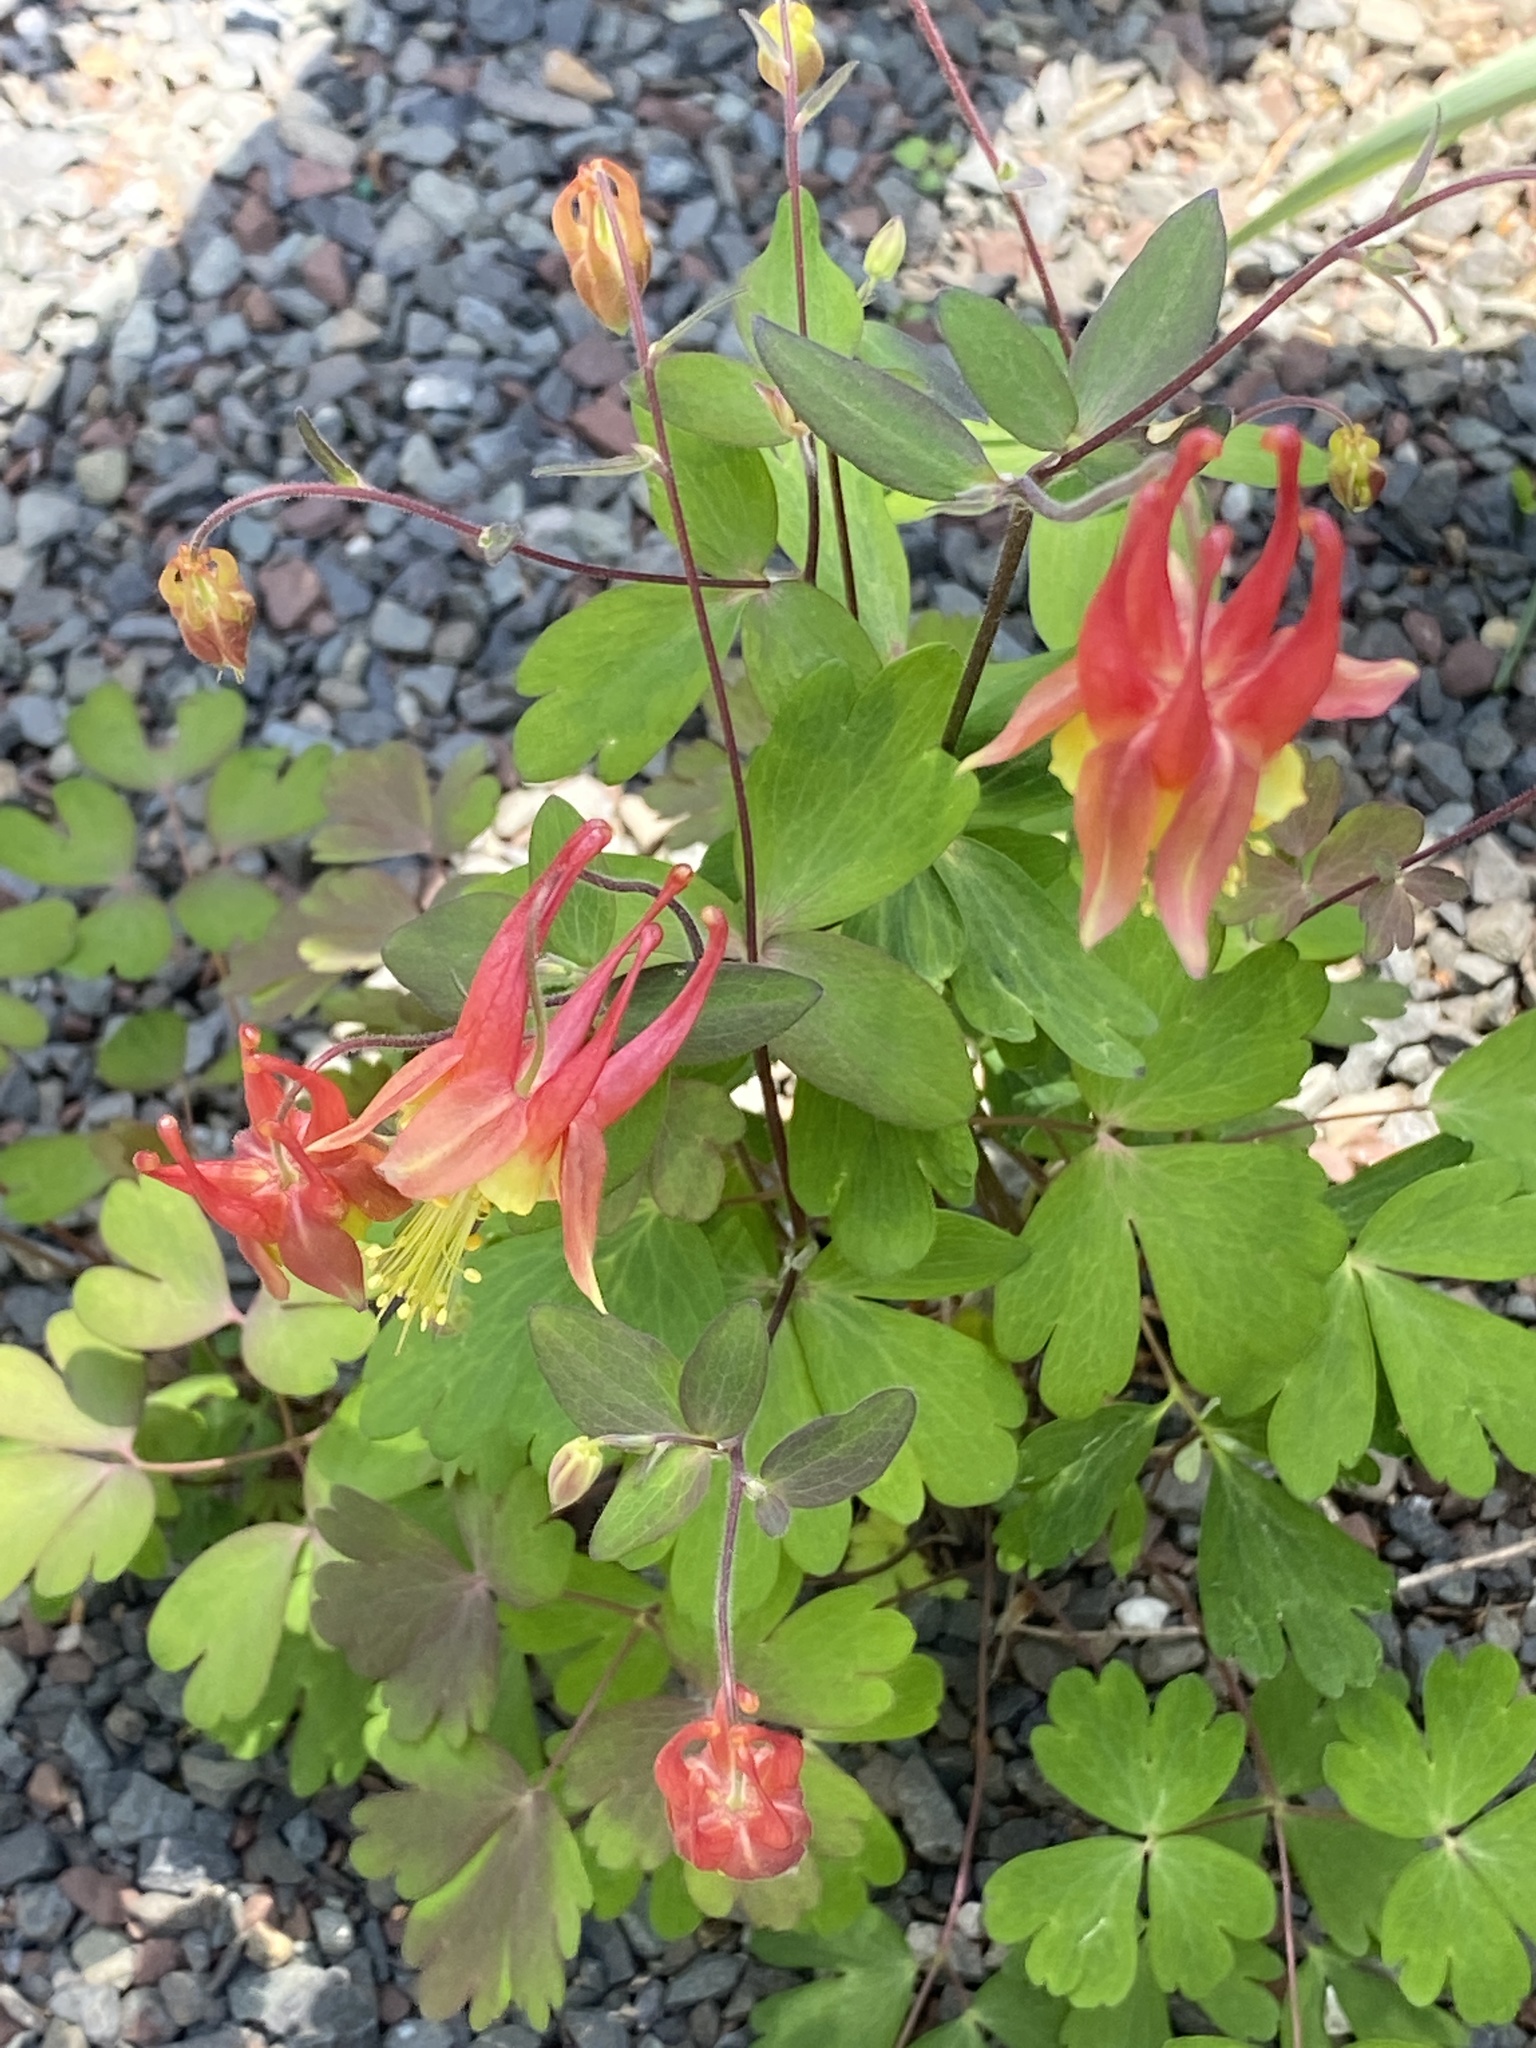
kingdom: Plantae
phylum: Tracheophyta
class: Magnoliopsida
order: Ranunculales
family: Ranunculaceae
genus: Aquilegia
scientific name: Aquilegia canadensis
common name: American columbine
